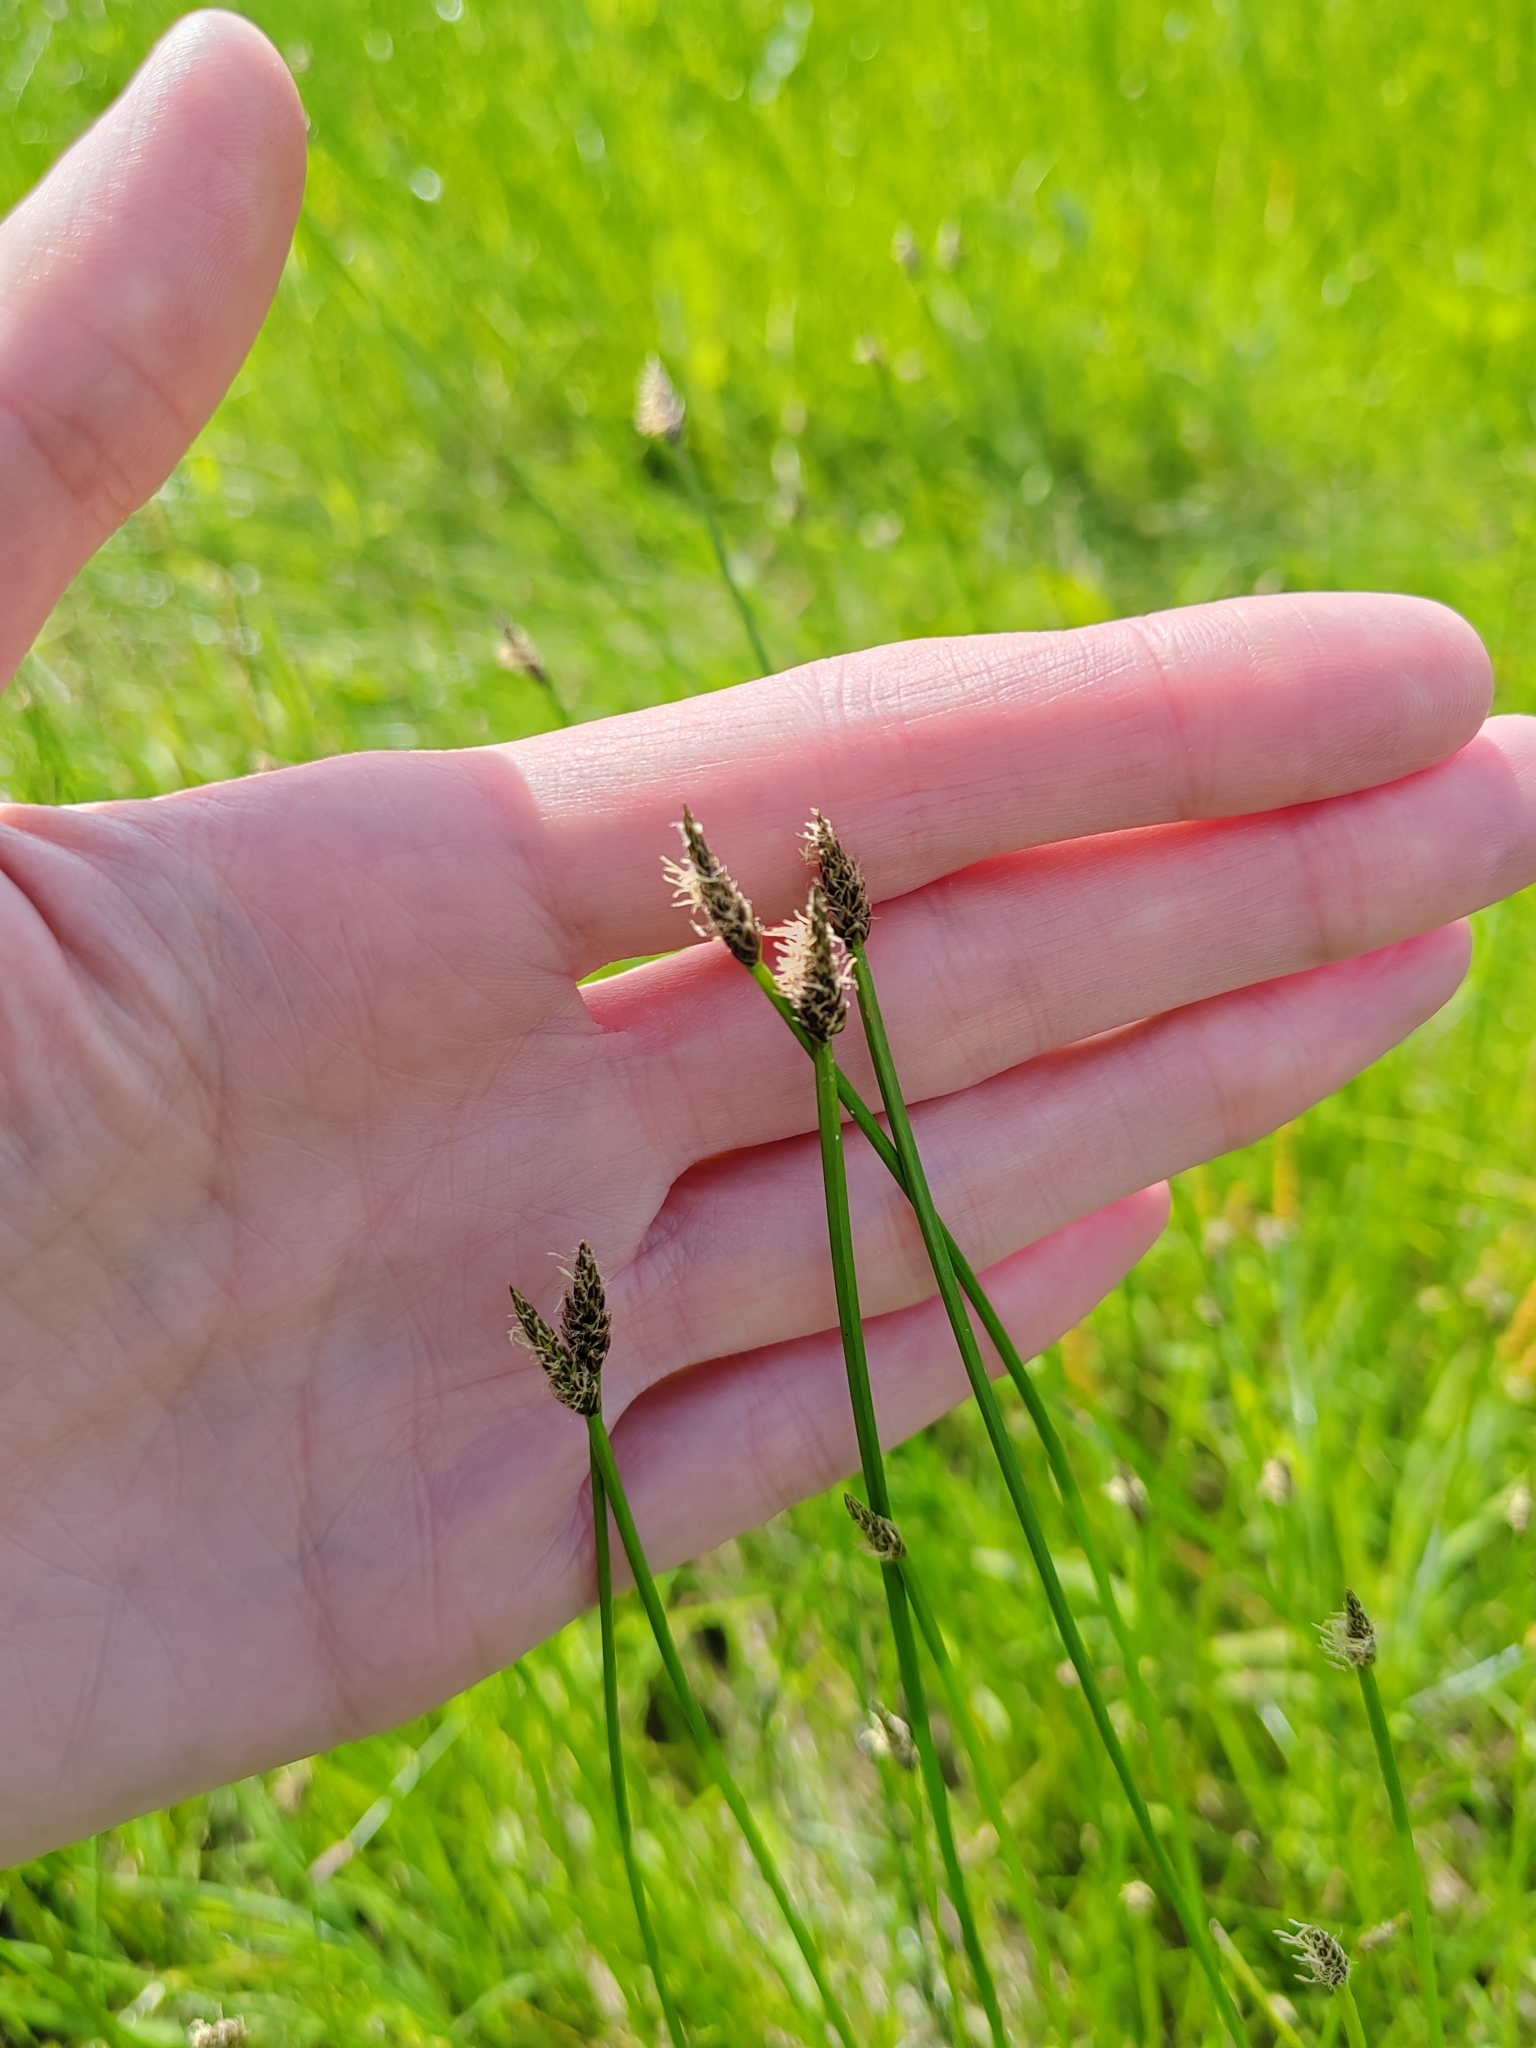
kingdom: Plantae
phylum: Tracheophyta
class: Liliopsida
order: Poales
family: Cyperaceae
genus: Eleocharis
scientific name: Eleocharis palustris
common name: Common spike-rush
